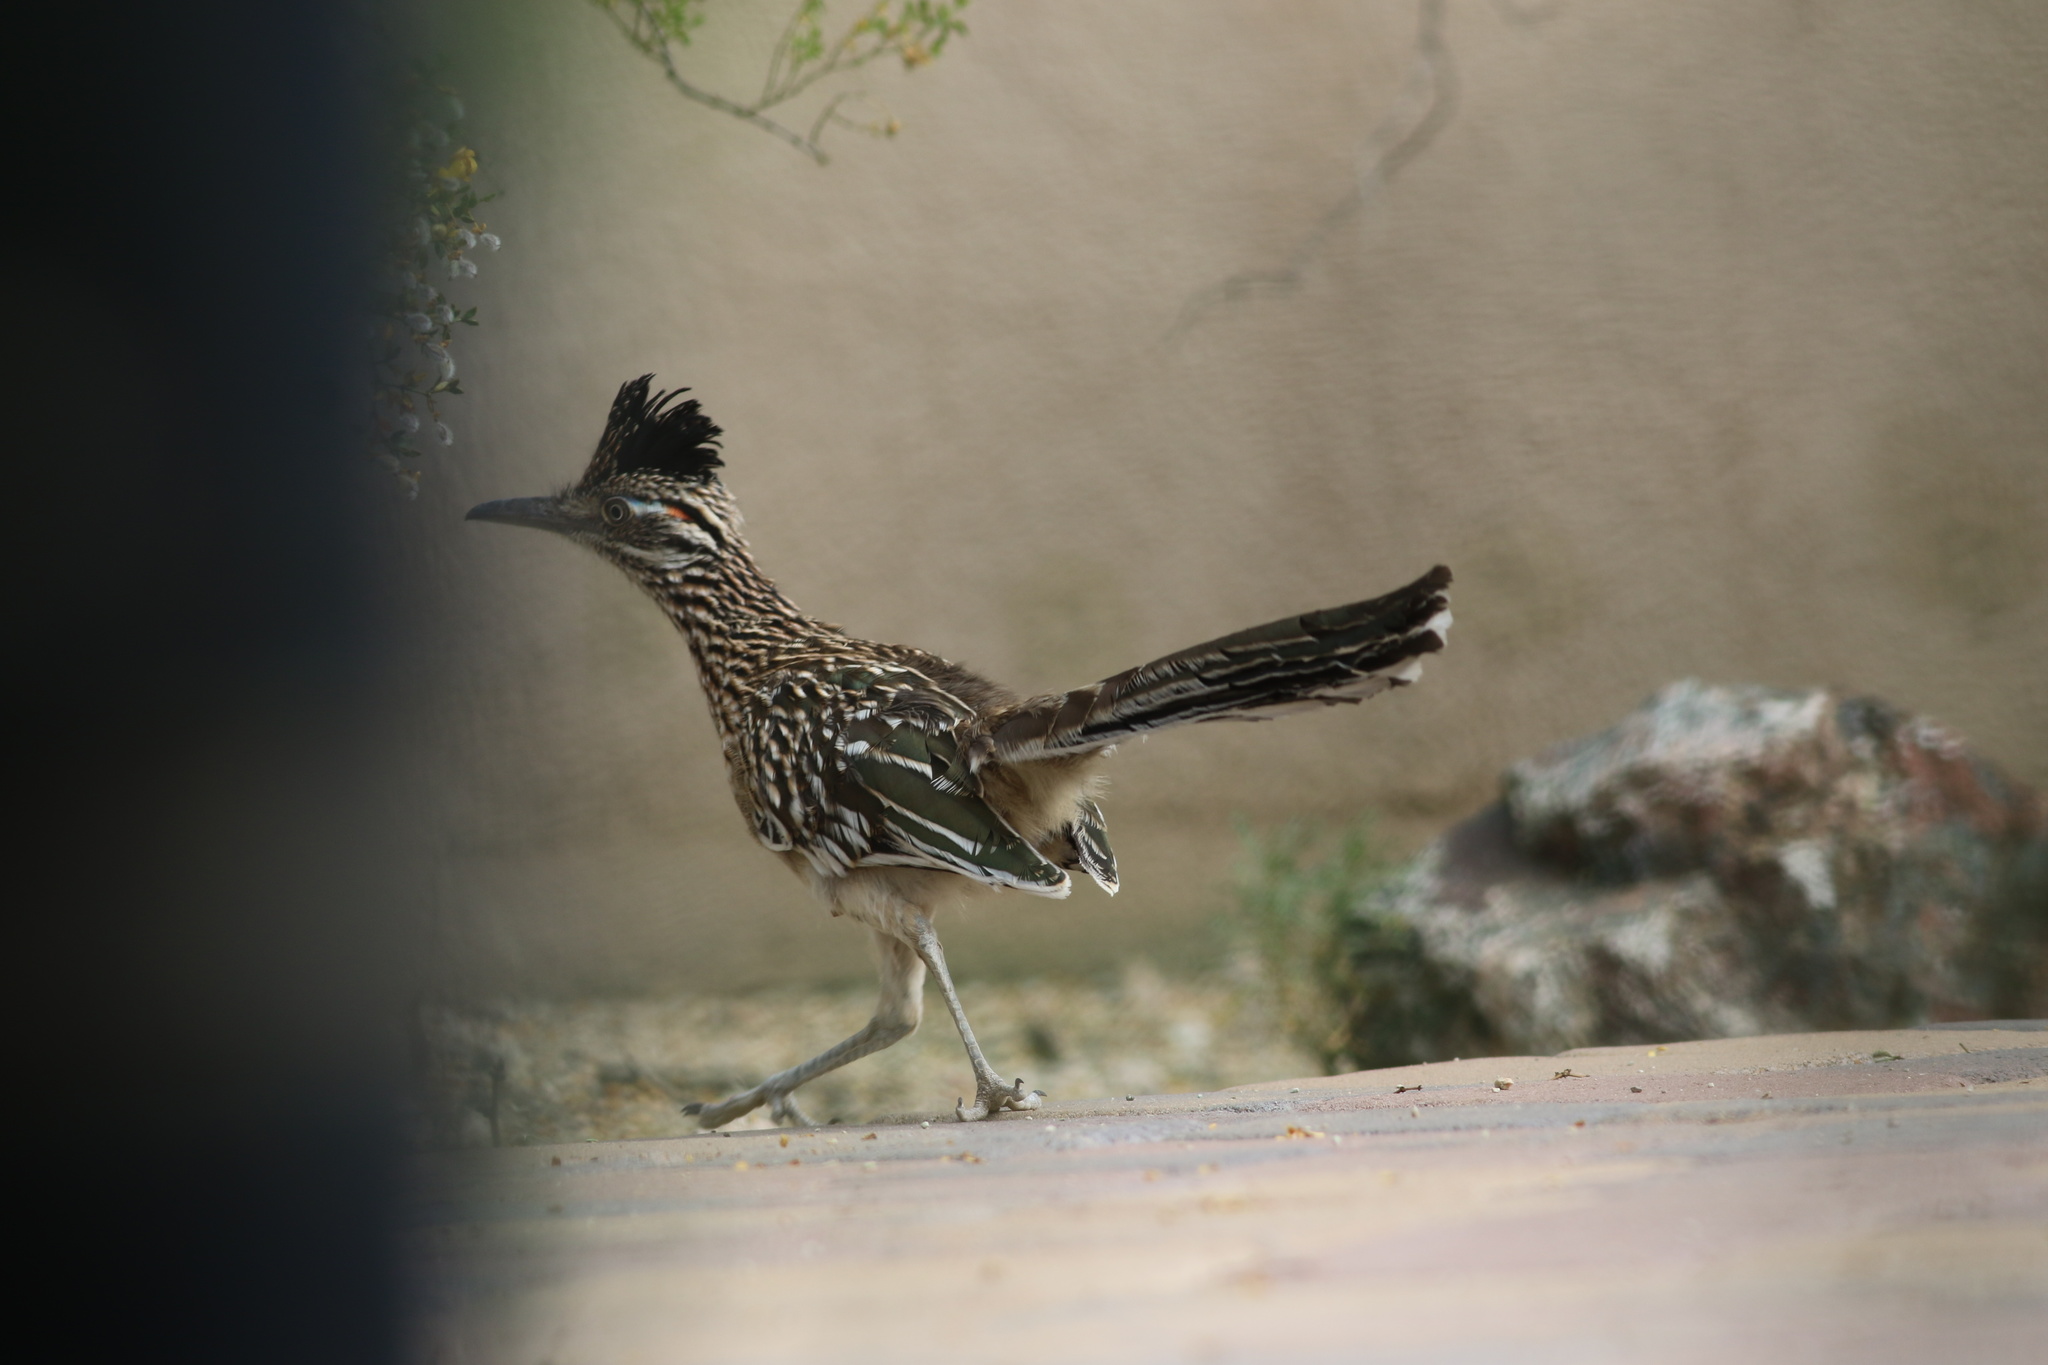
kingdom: Animalia
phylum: Chordata
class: Aves
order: Cuculiformes
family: Cuculidae
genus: Geococcyx
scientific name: Geococcyx californianus
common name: Greater roadrunner
